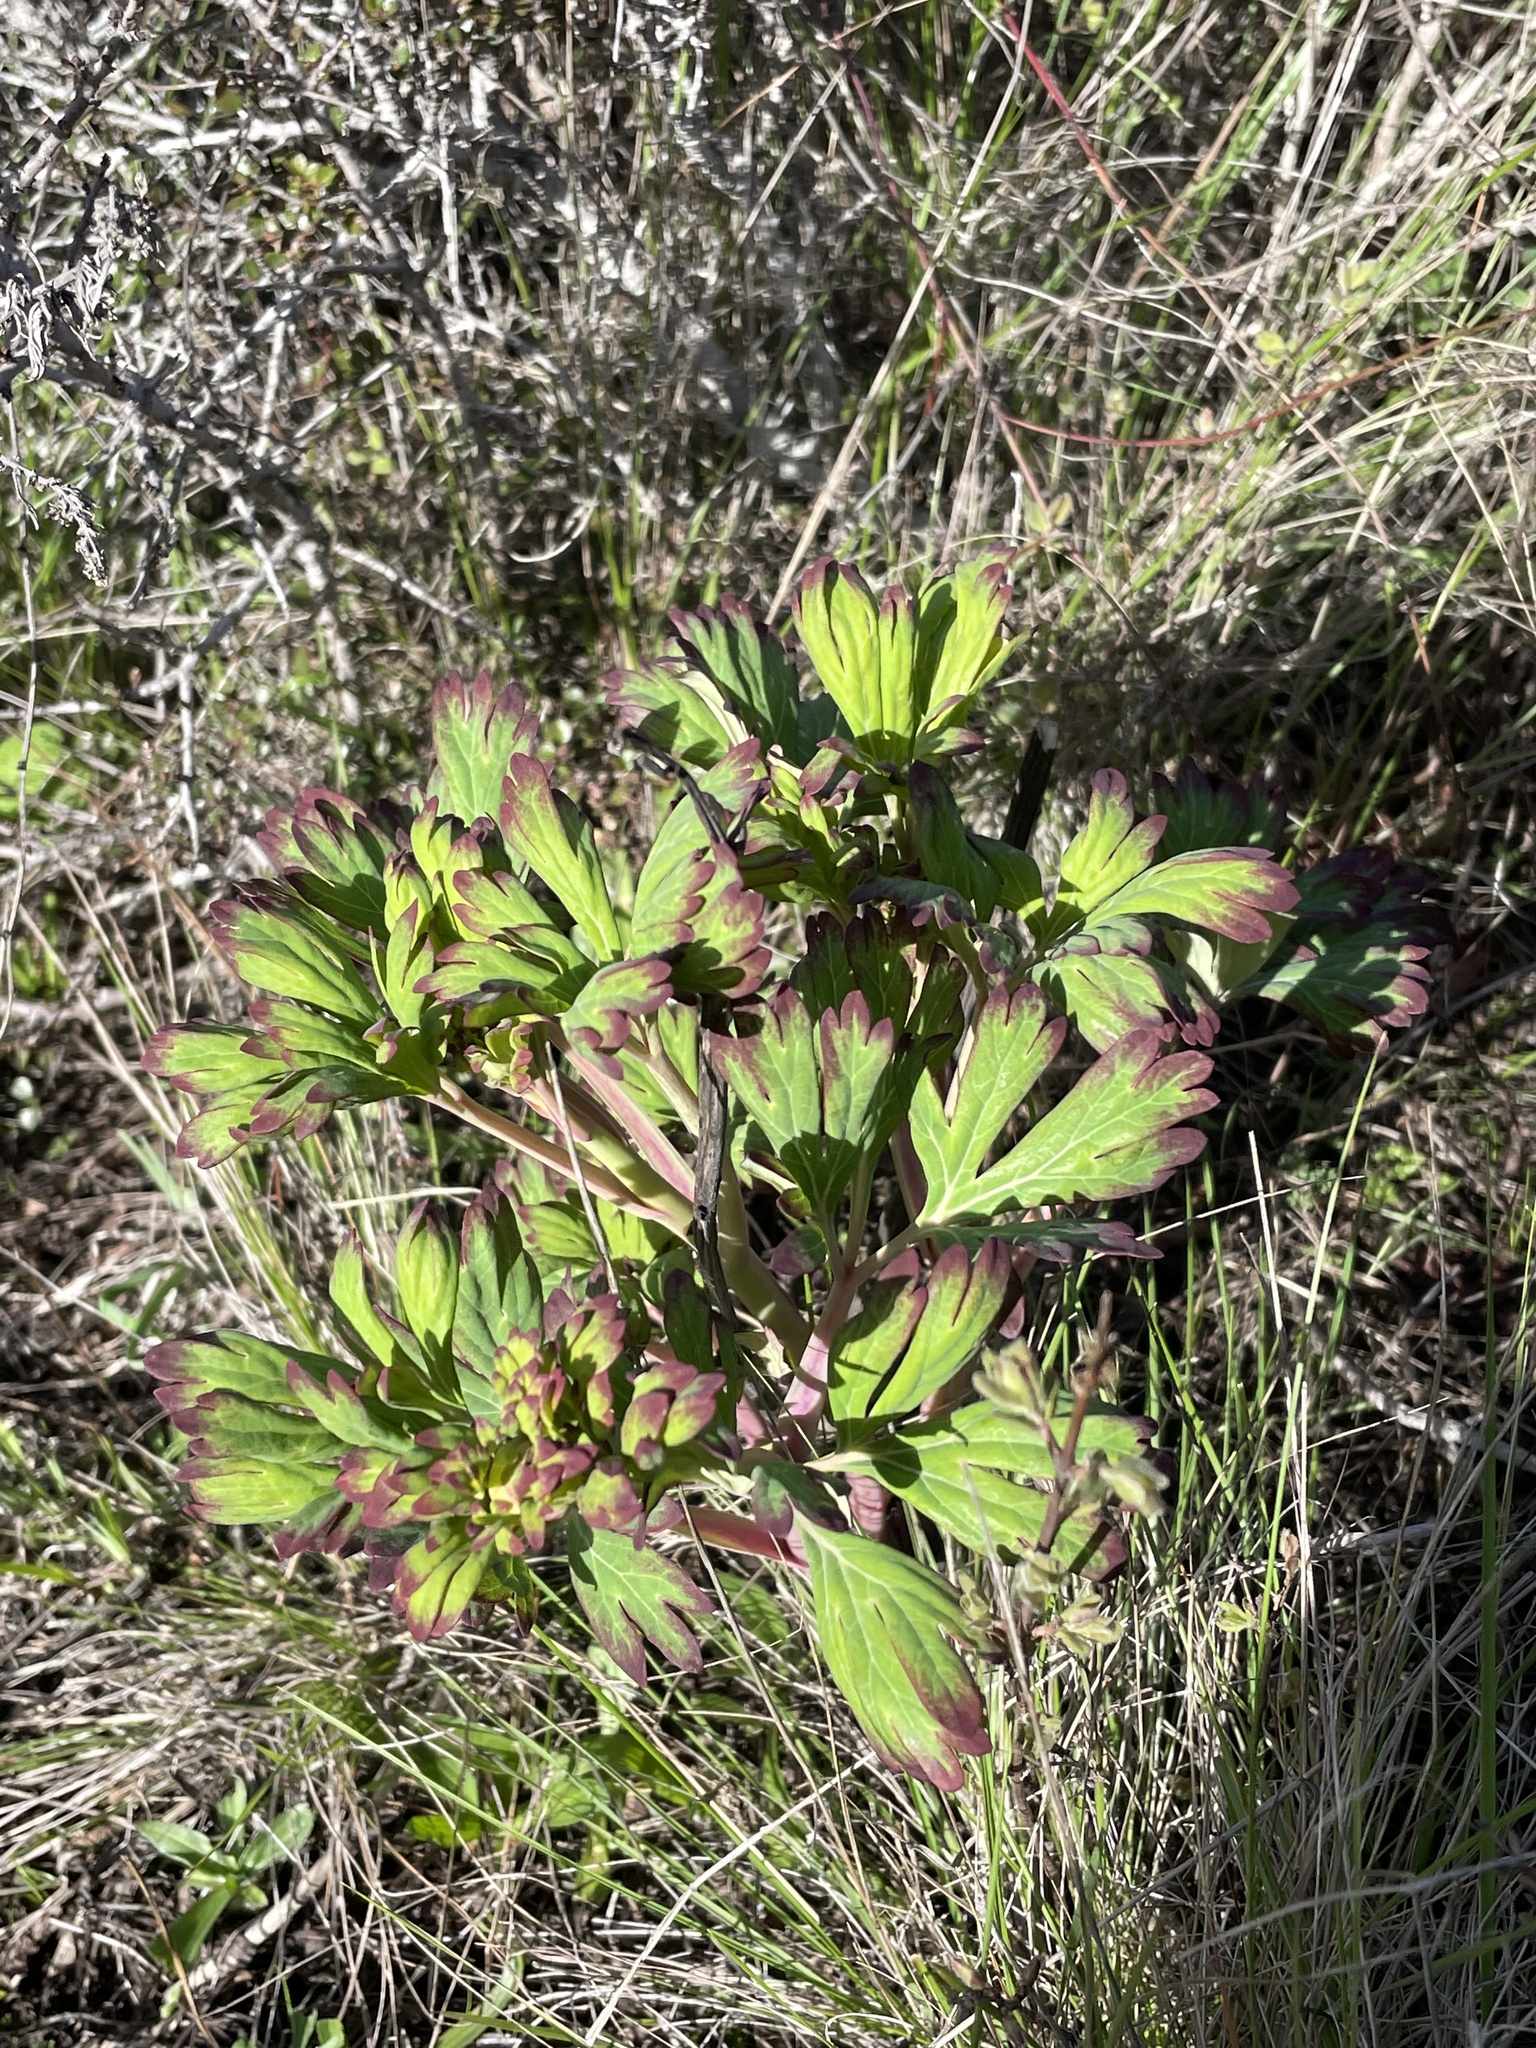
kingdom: Plantae
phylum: Tracheophyta
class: Magnoliopsida
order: Saxifragales
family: Paeoniaceae
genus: Paeonia
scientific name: Paeonia californica
